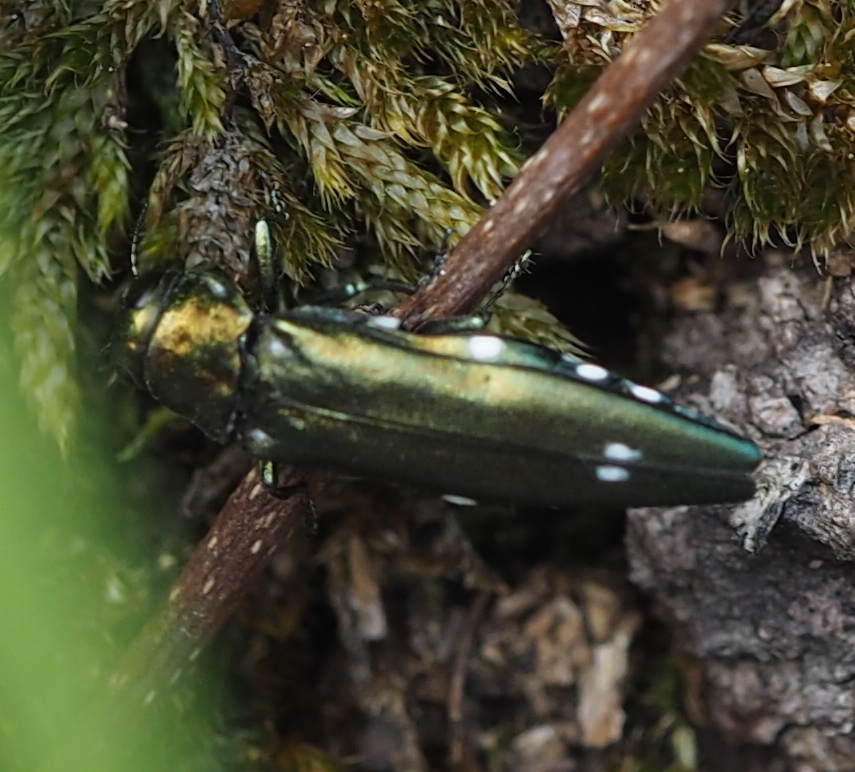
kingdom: Animalia
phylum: Arthropoda
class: Insecta
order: Coleoptera
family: Buprestidae
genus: Agrilus
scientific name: Agrilus biguttatus
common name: Oak jewel beetle
